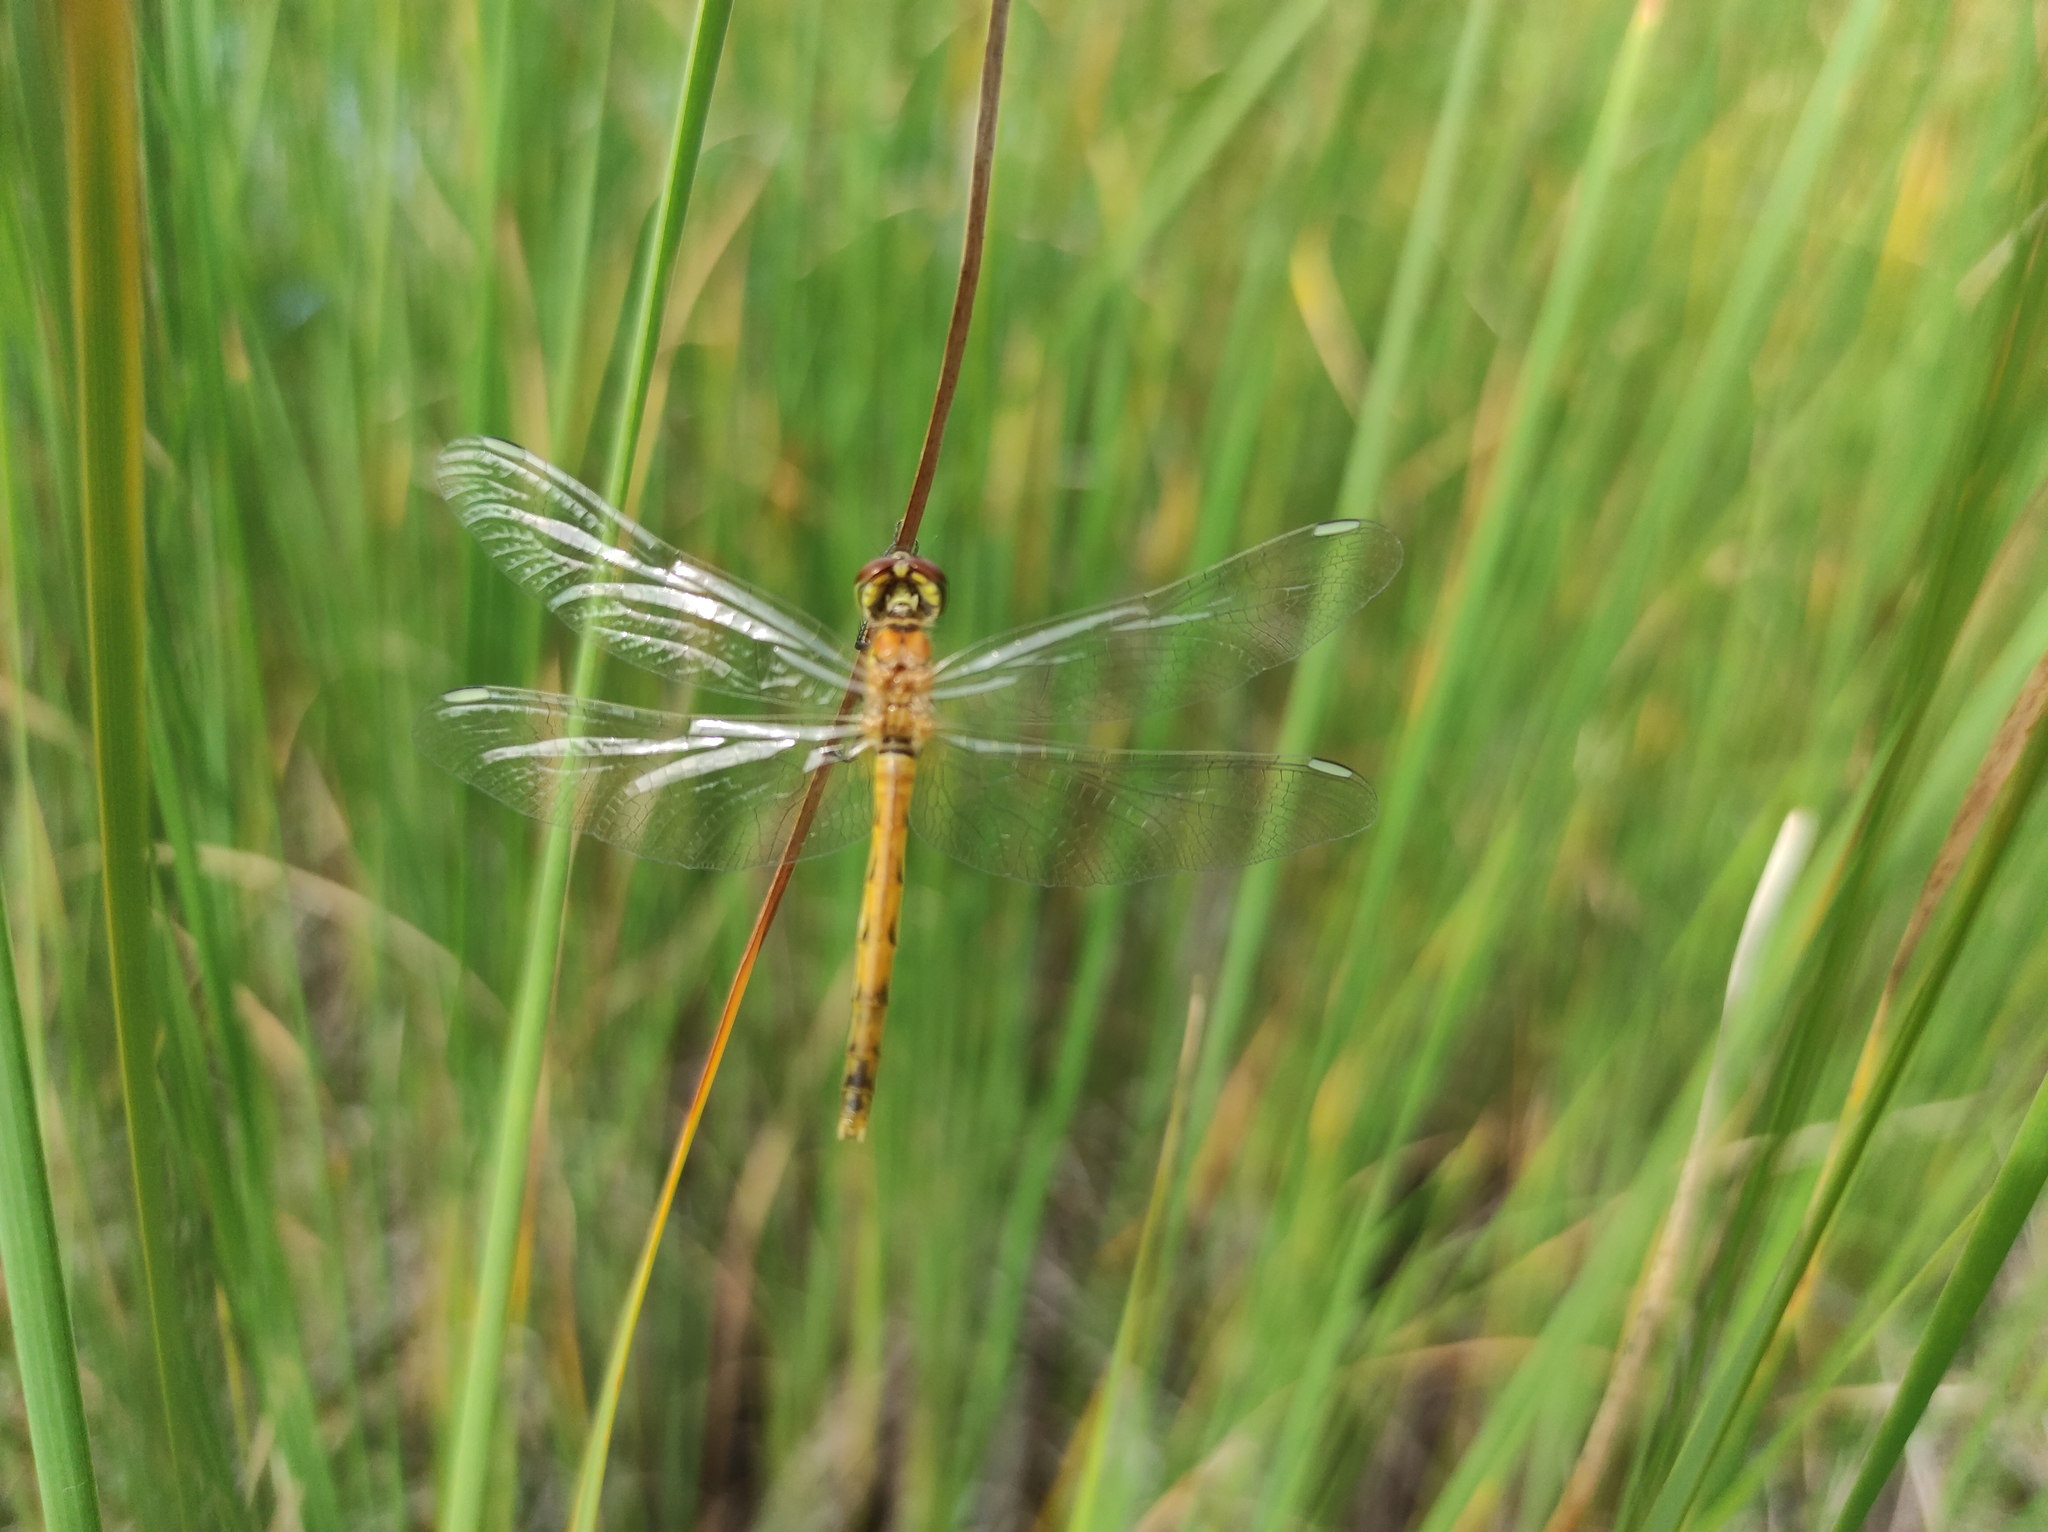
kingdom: Animalia
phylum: Arthropoda
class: Insecta
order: Odonata
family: Libellulidae
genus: Sympetrum
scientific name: Sympetrum depressiusculum
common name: Spotted darter
